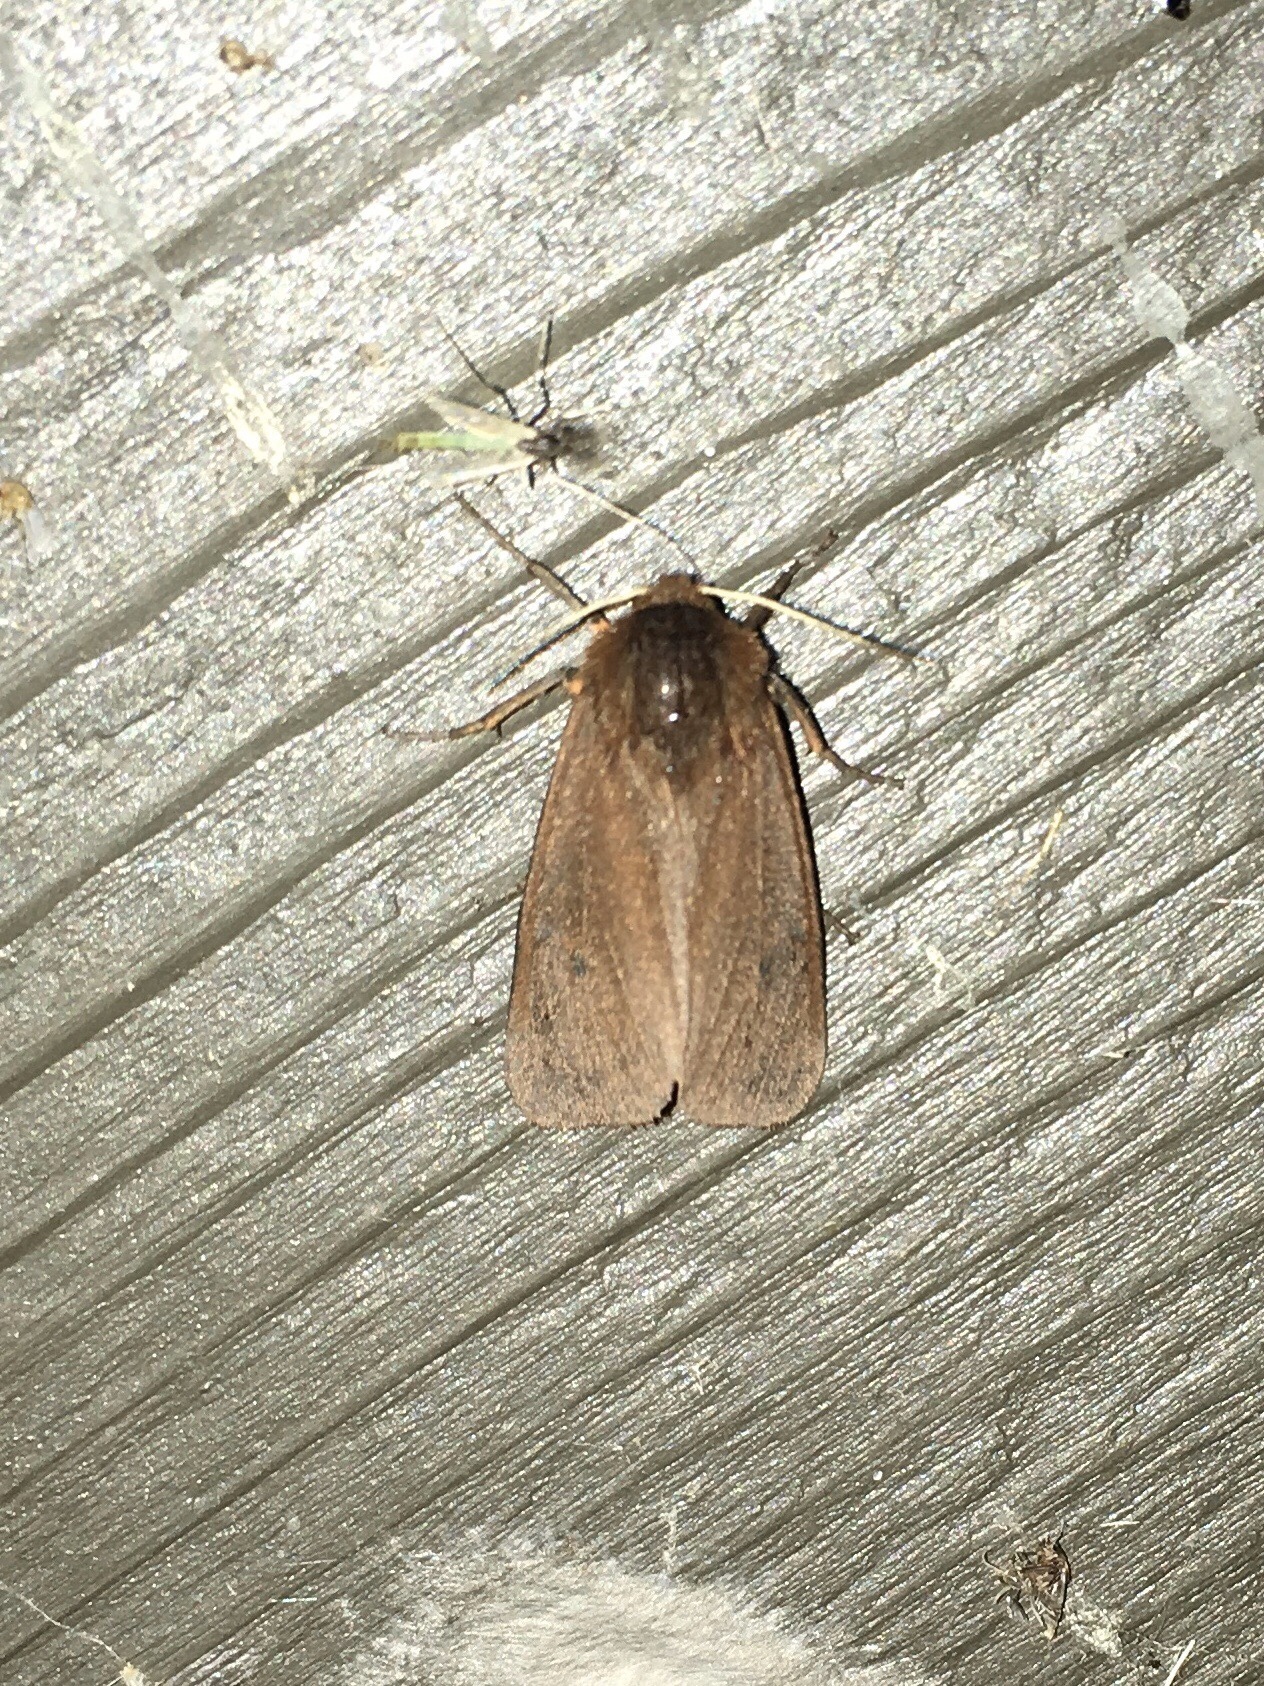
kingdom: Animalia
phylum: Arthropoda
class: Insecta
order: Lepidoptera
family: Erebidae
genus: Phragmatobia
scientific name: Phragmatobia fuliginosa
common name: Ruby tiger
